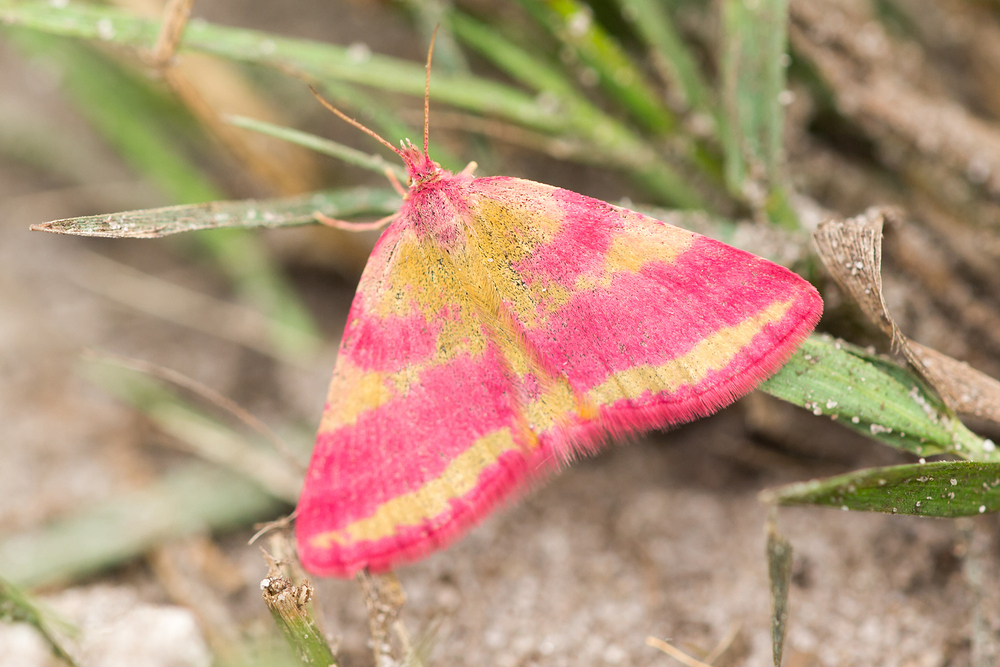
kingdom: Animalia
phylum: Arthropoda
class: Insecta
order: Lepidoptera
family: Geometridae
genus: Lythria
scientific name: Lythria cruentaria
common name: Purple-barred yellow
